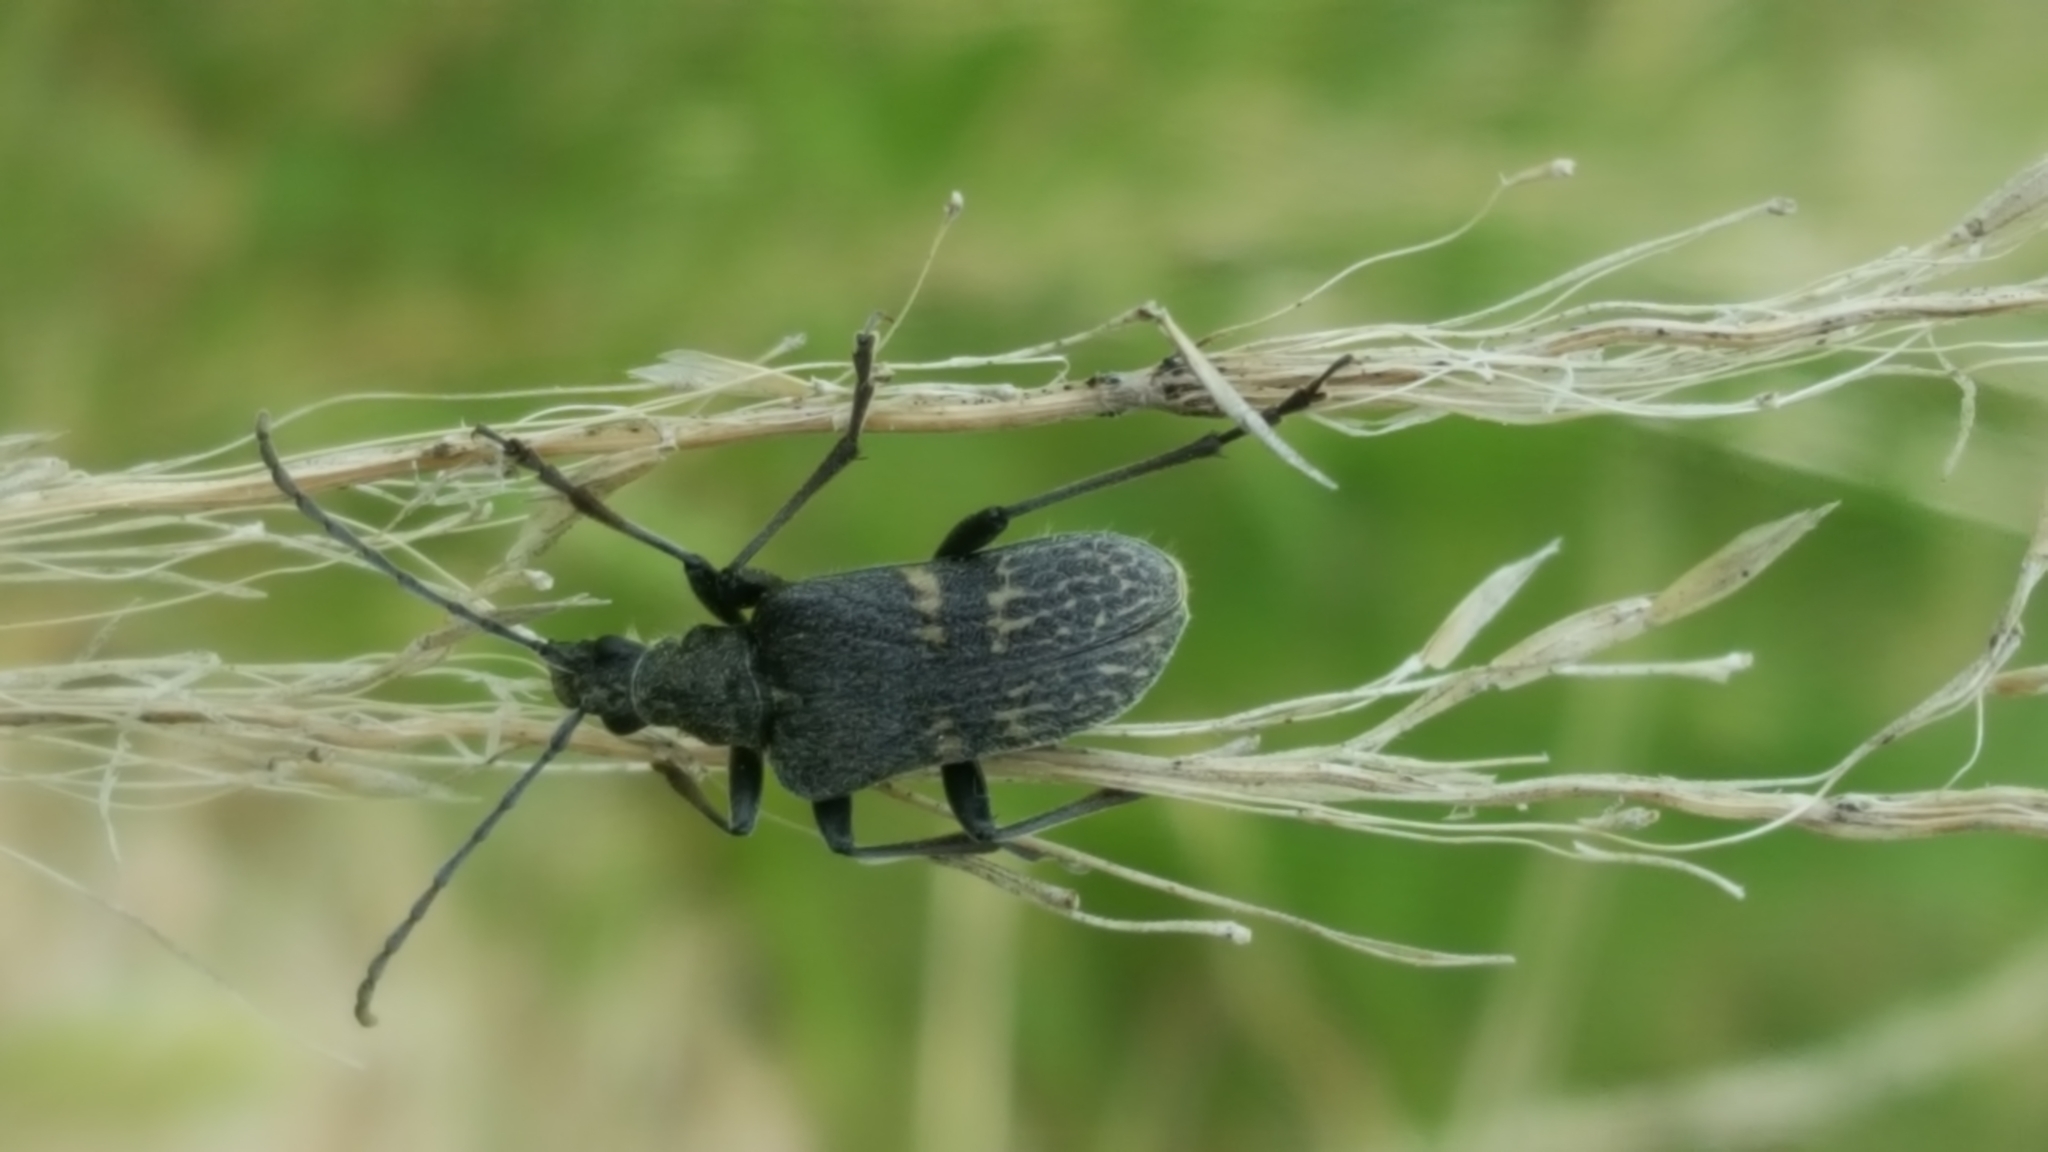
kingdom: Animalia
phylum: Arthropoda
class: Insecta
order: Coleoptera
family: Cerambycidae
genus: Evodinus
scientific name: Evodinus clathratus
